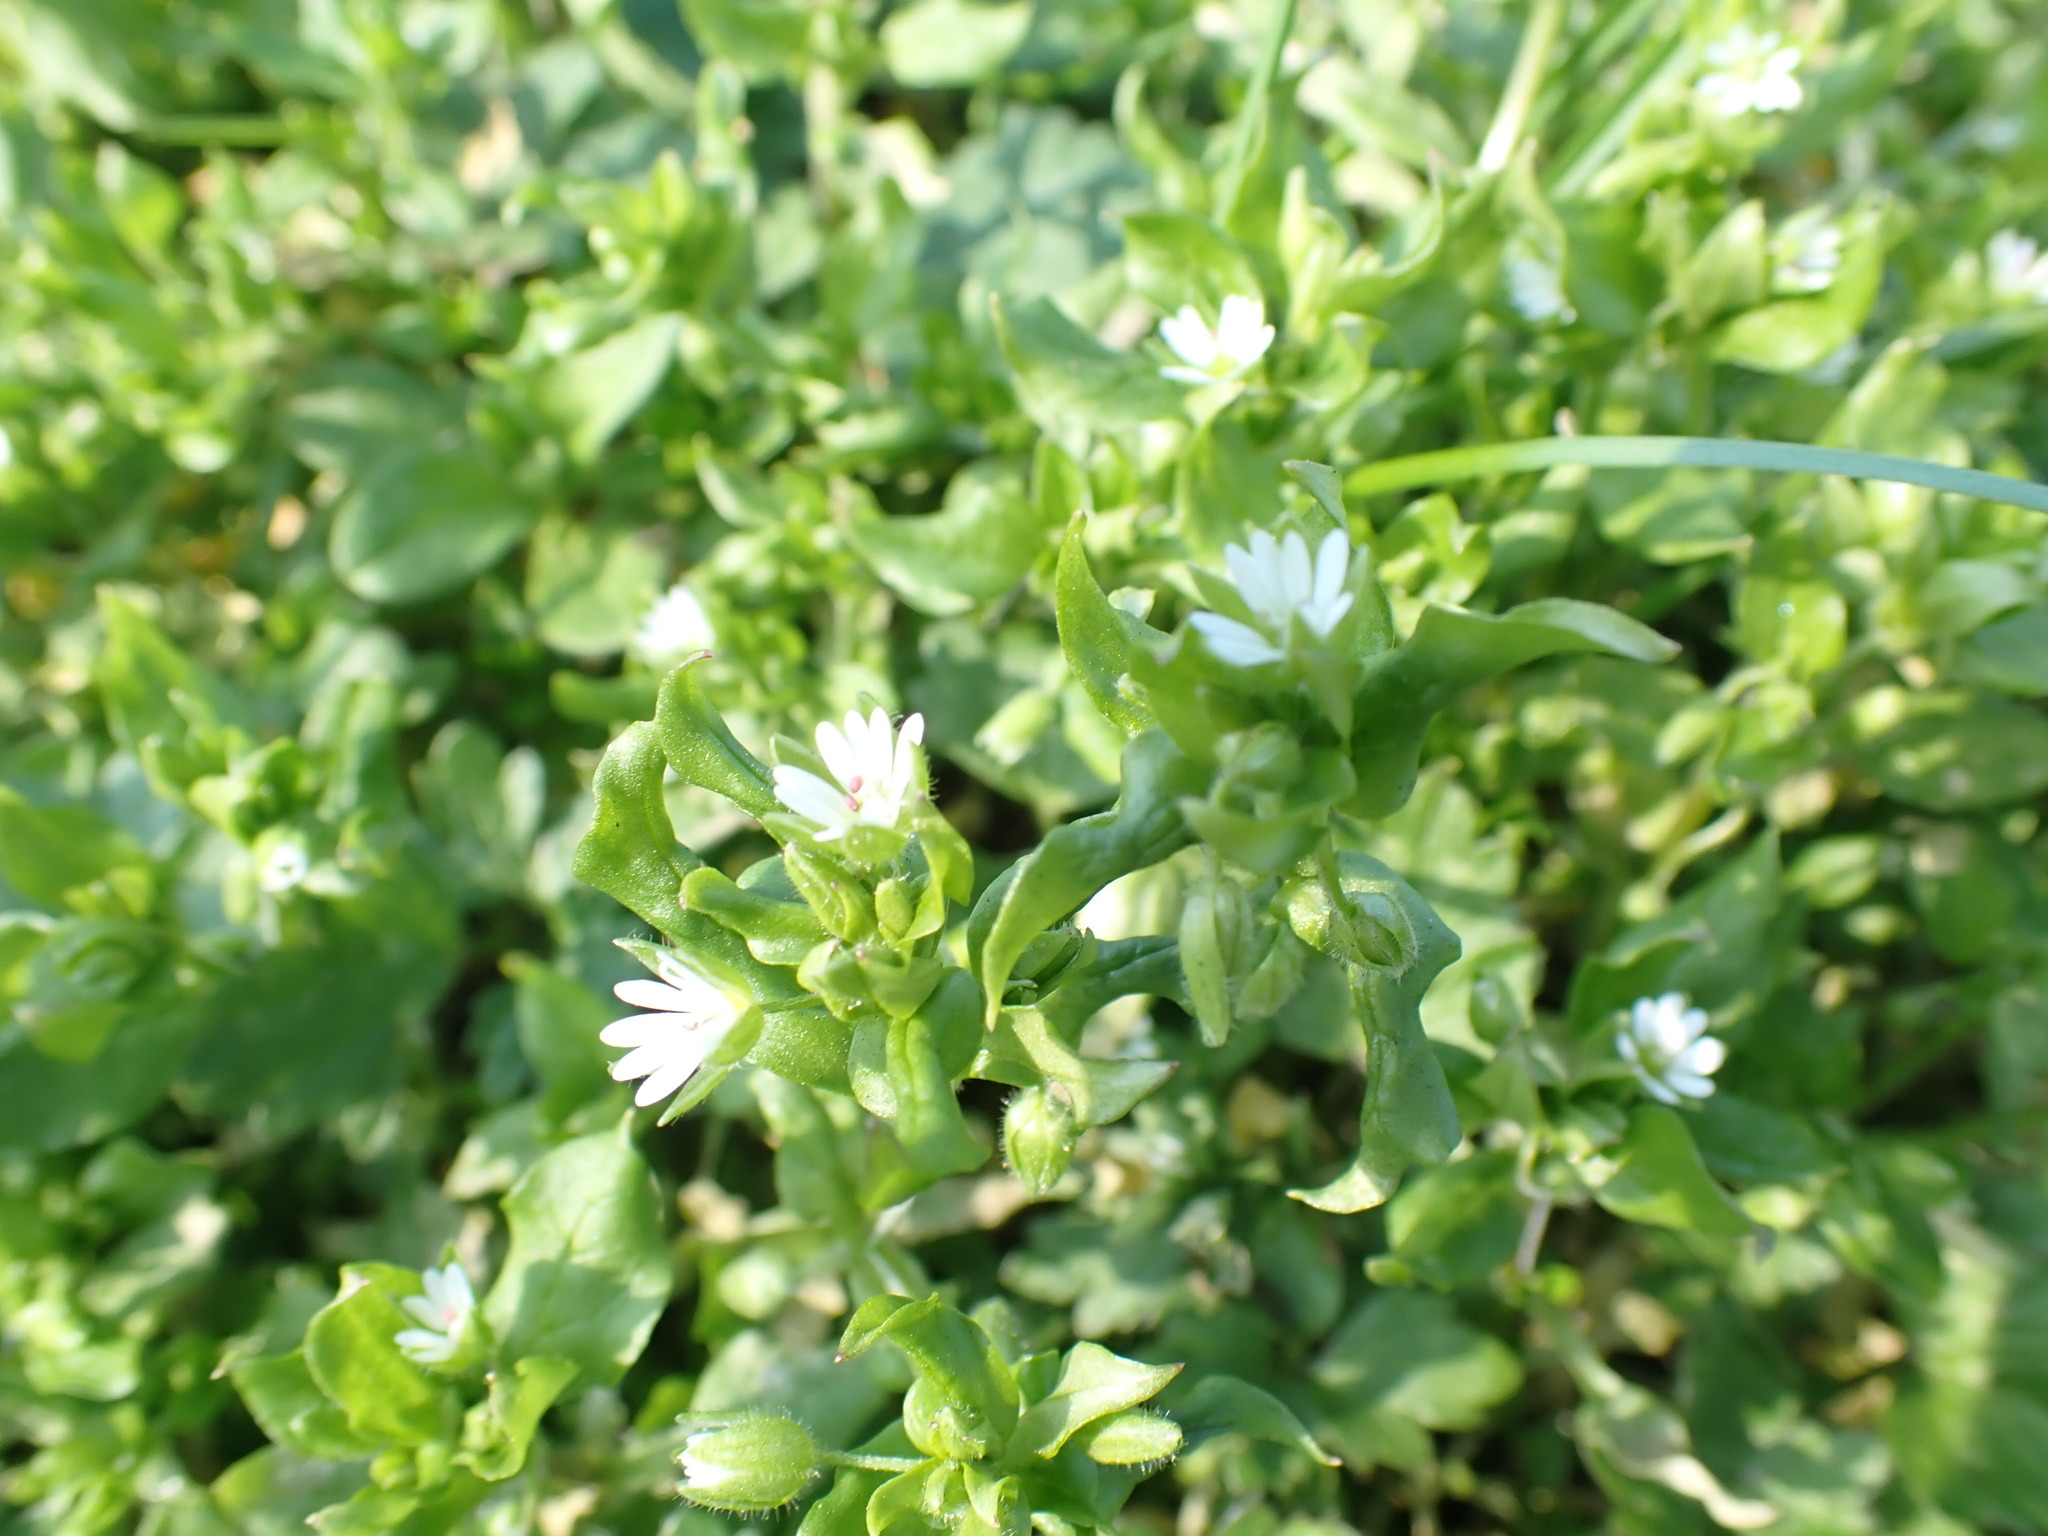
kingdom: Plantae
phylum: Tracheophyta
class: Magnoliopsida
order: Caryophyllales
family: Caryophyllaceae
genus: Stellaria
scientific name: Stellaria media
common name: Common chickweed
